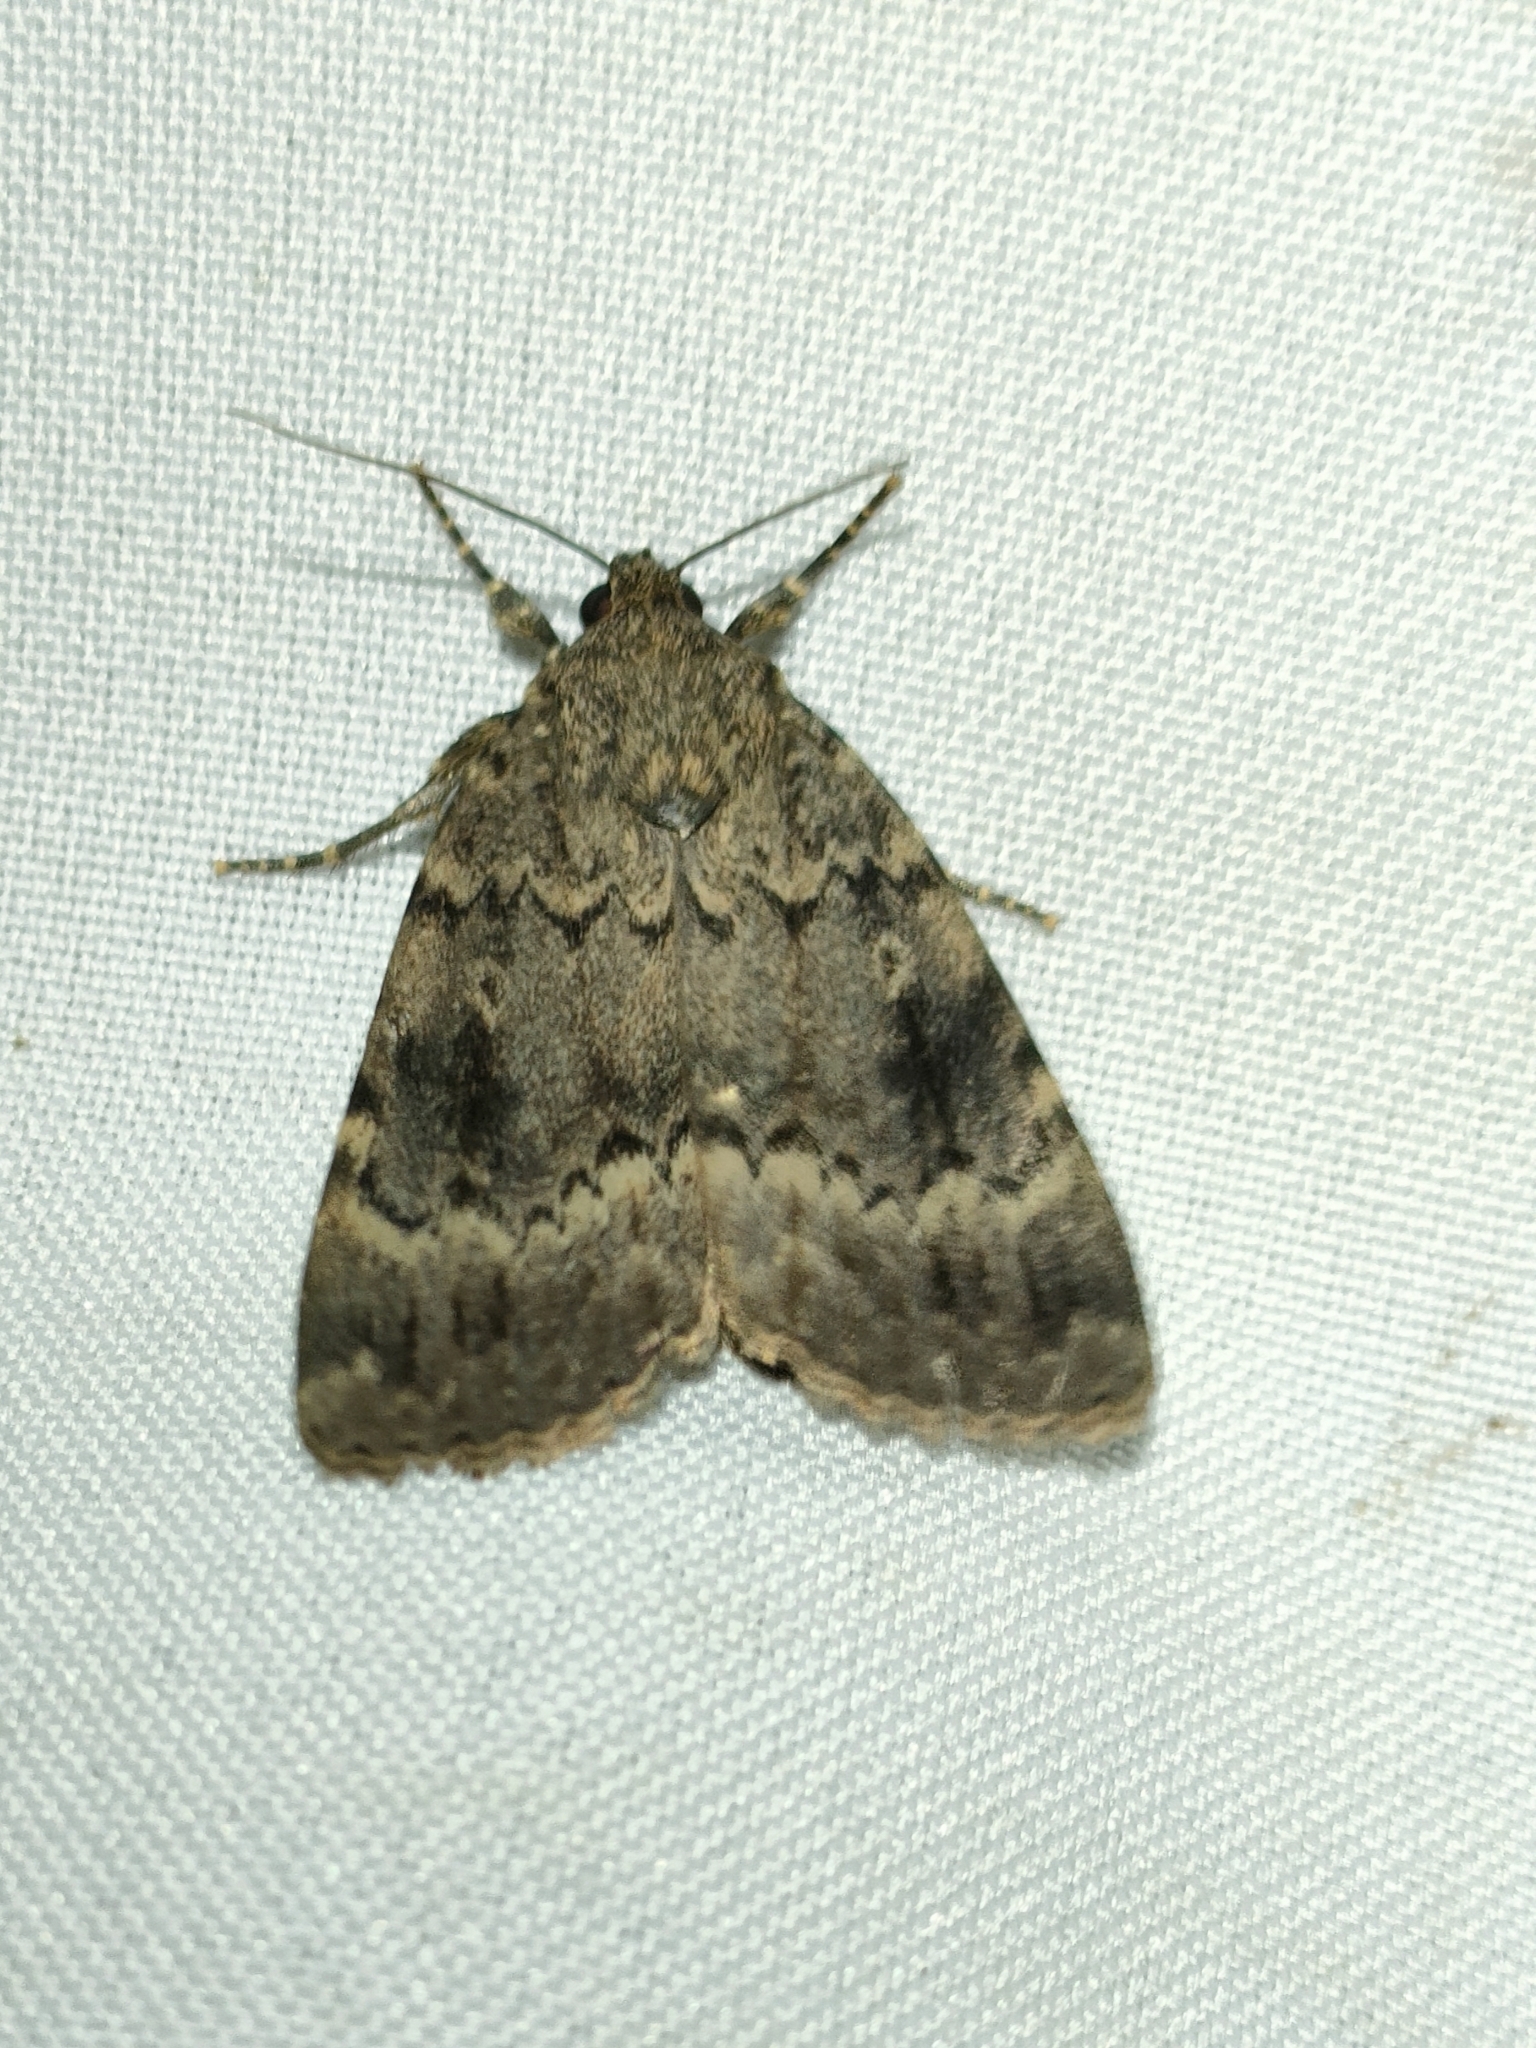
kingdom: Animalia
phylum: Arthropoda
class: Insecta
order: Lepidoptera
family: Noctuidae
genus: Amphipyra
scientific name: Amphipyra berbera
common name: Svensson's copper underwing
